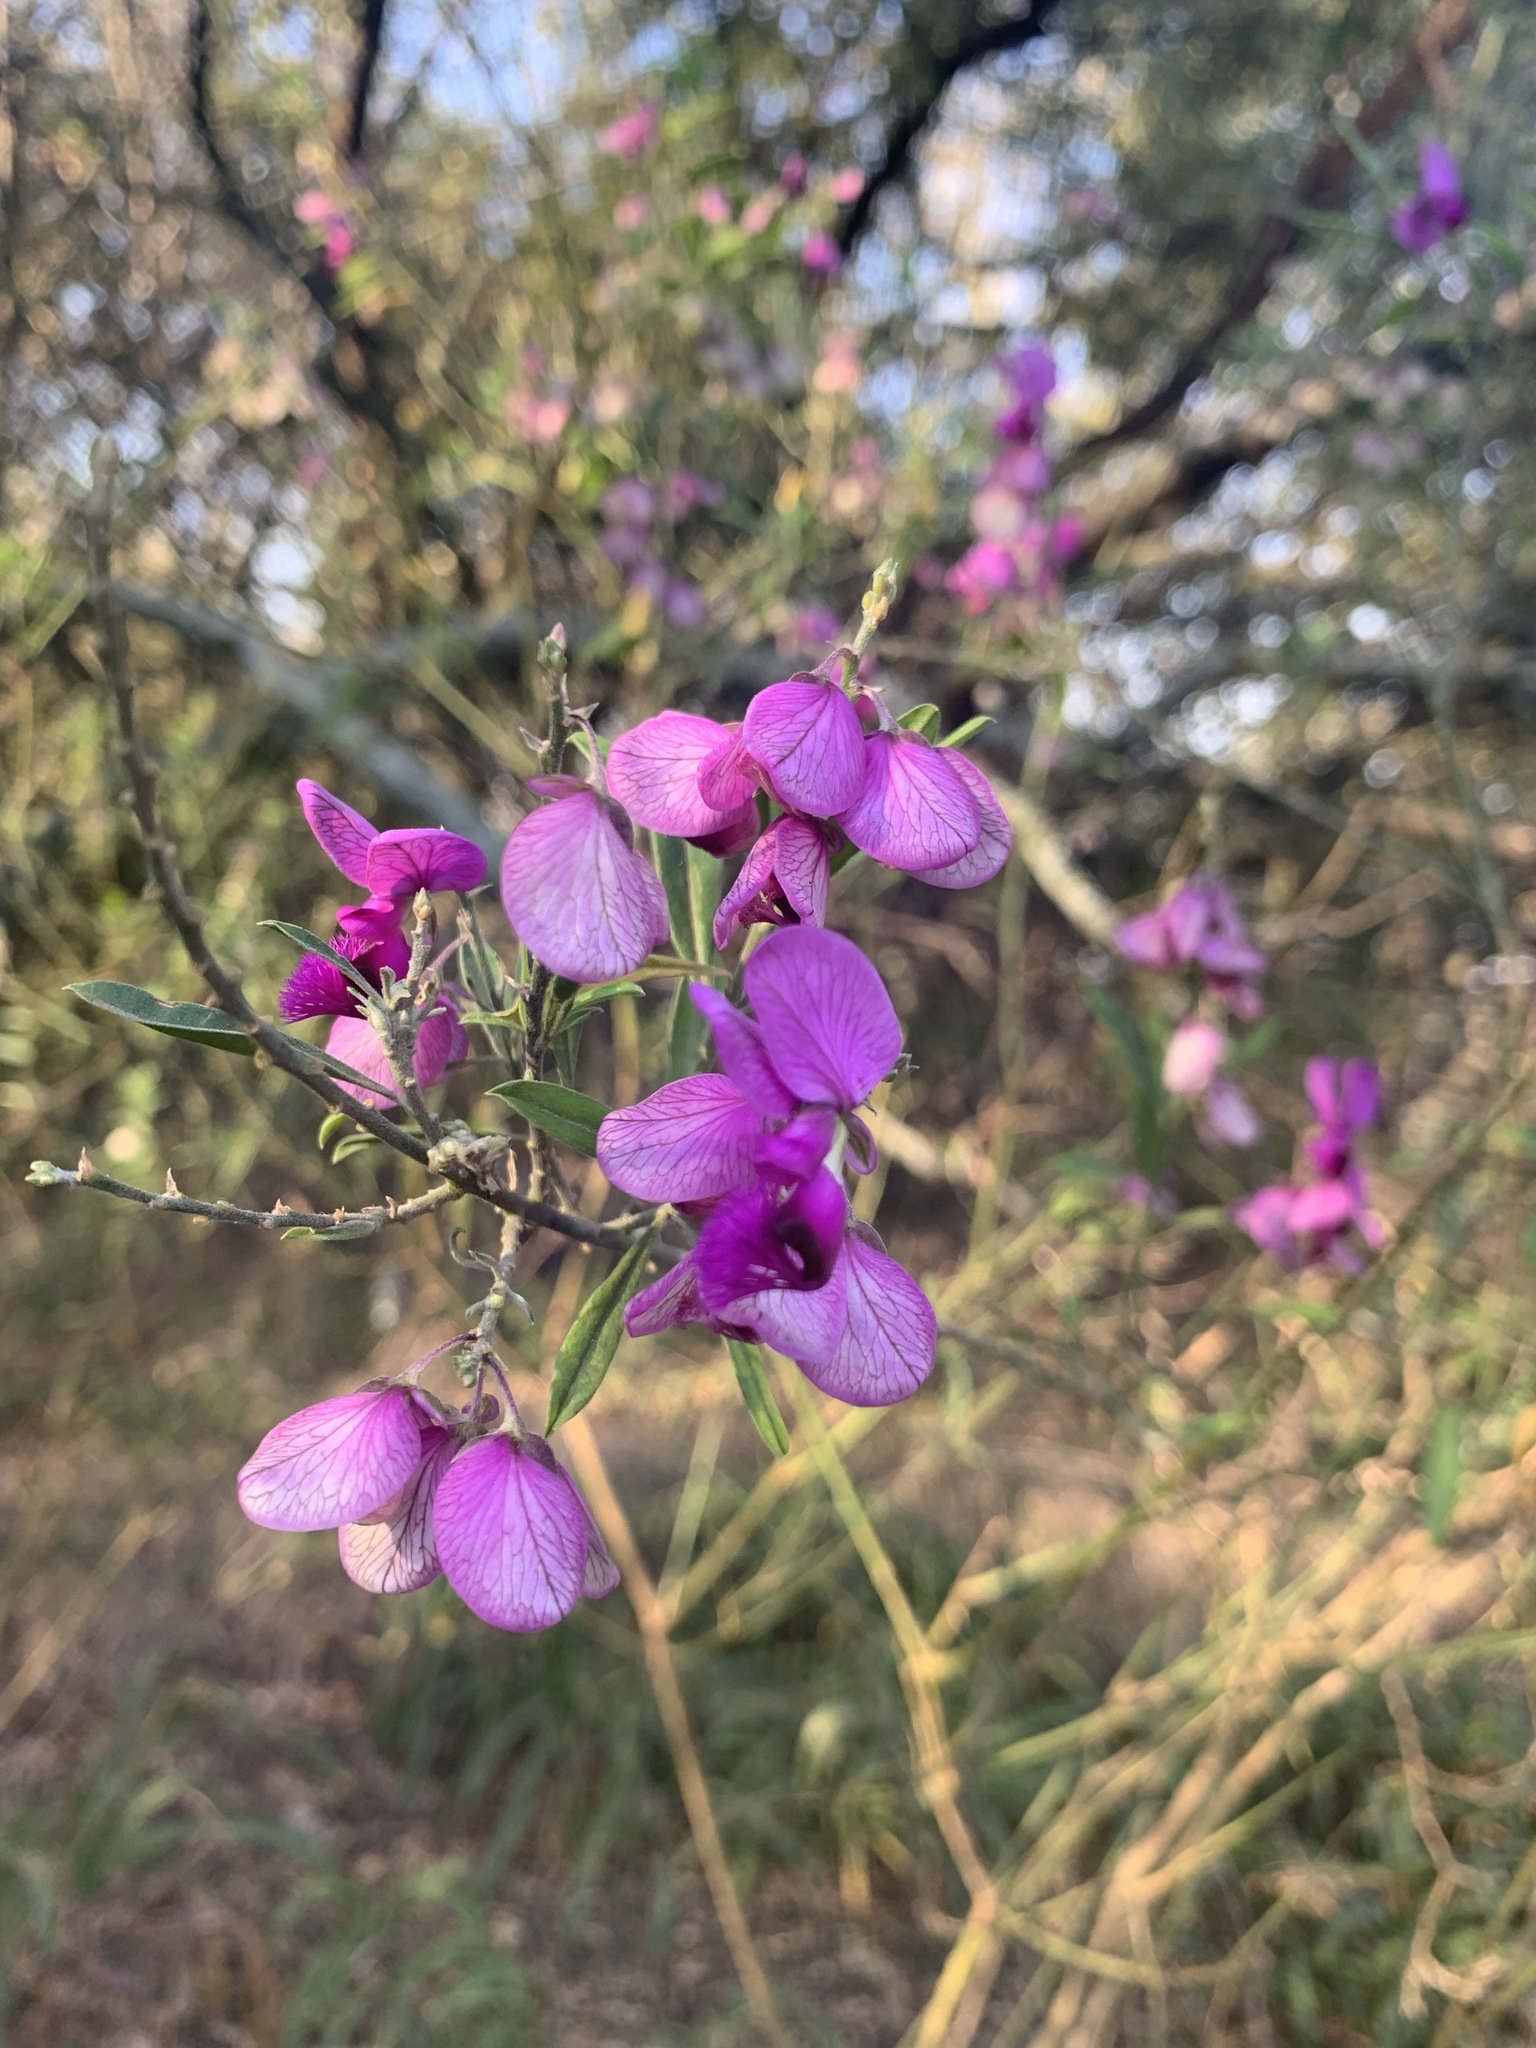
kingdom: Plantae
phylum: Tracheophyta
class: Magnoliopsida
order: Fabales
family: Polygalaceae
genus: Polygala
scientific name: Polygala virgata
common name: Milkwort
